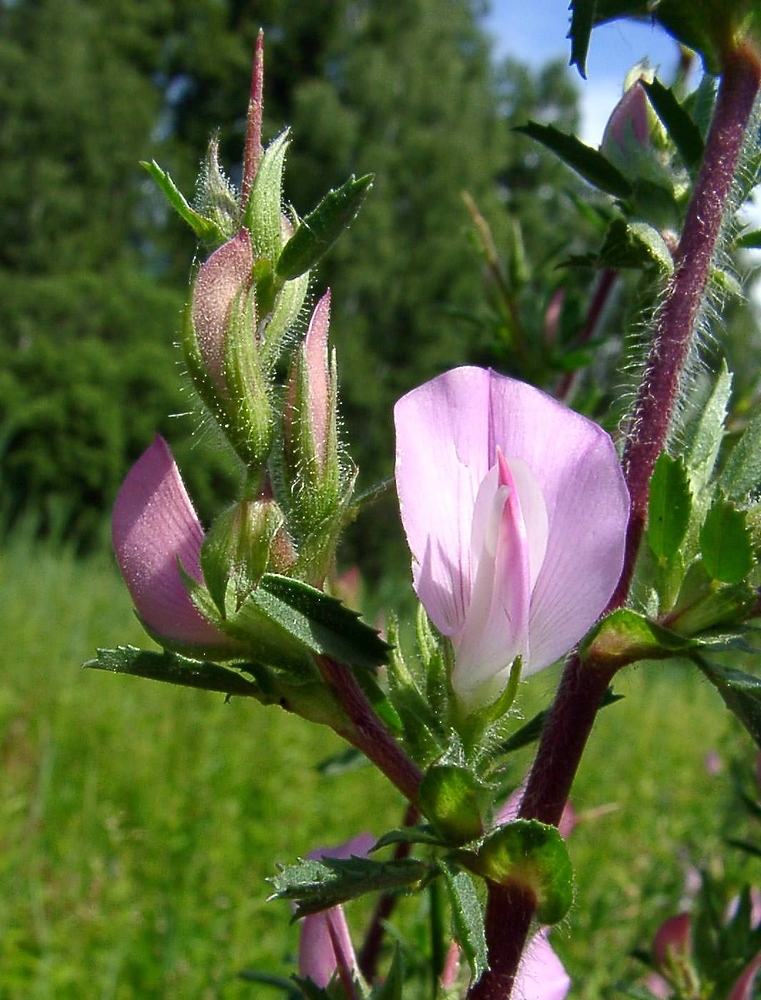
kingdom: Plantae
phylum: Tracheophyta
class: Magnoliopsida
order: Fabales
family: Fabaceae
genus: Ononis
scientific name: Ononis spinosa
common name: Spiny restharrow
